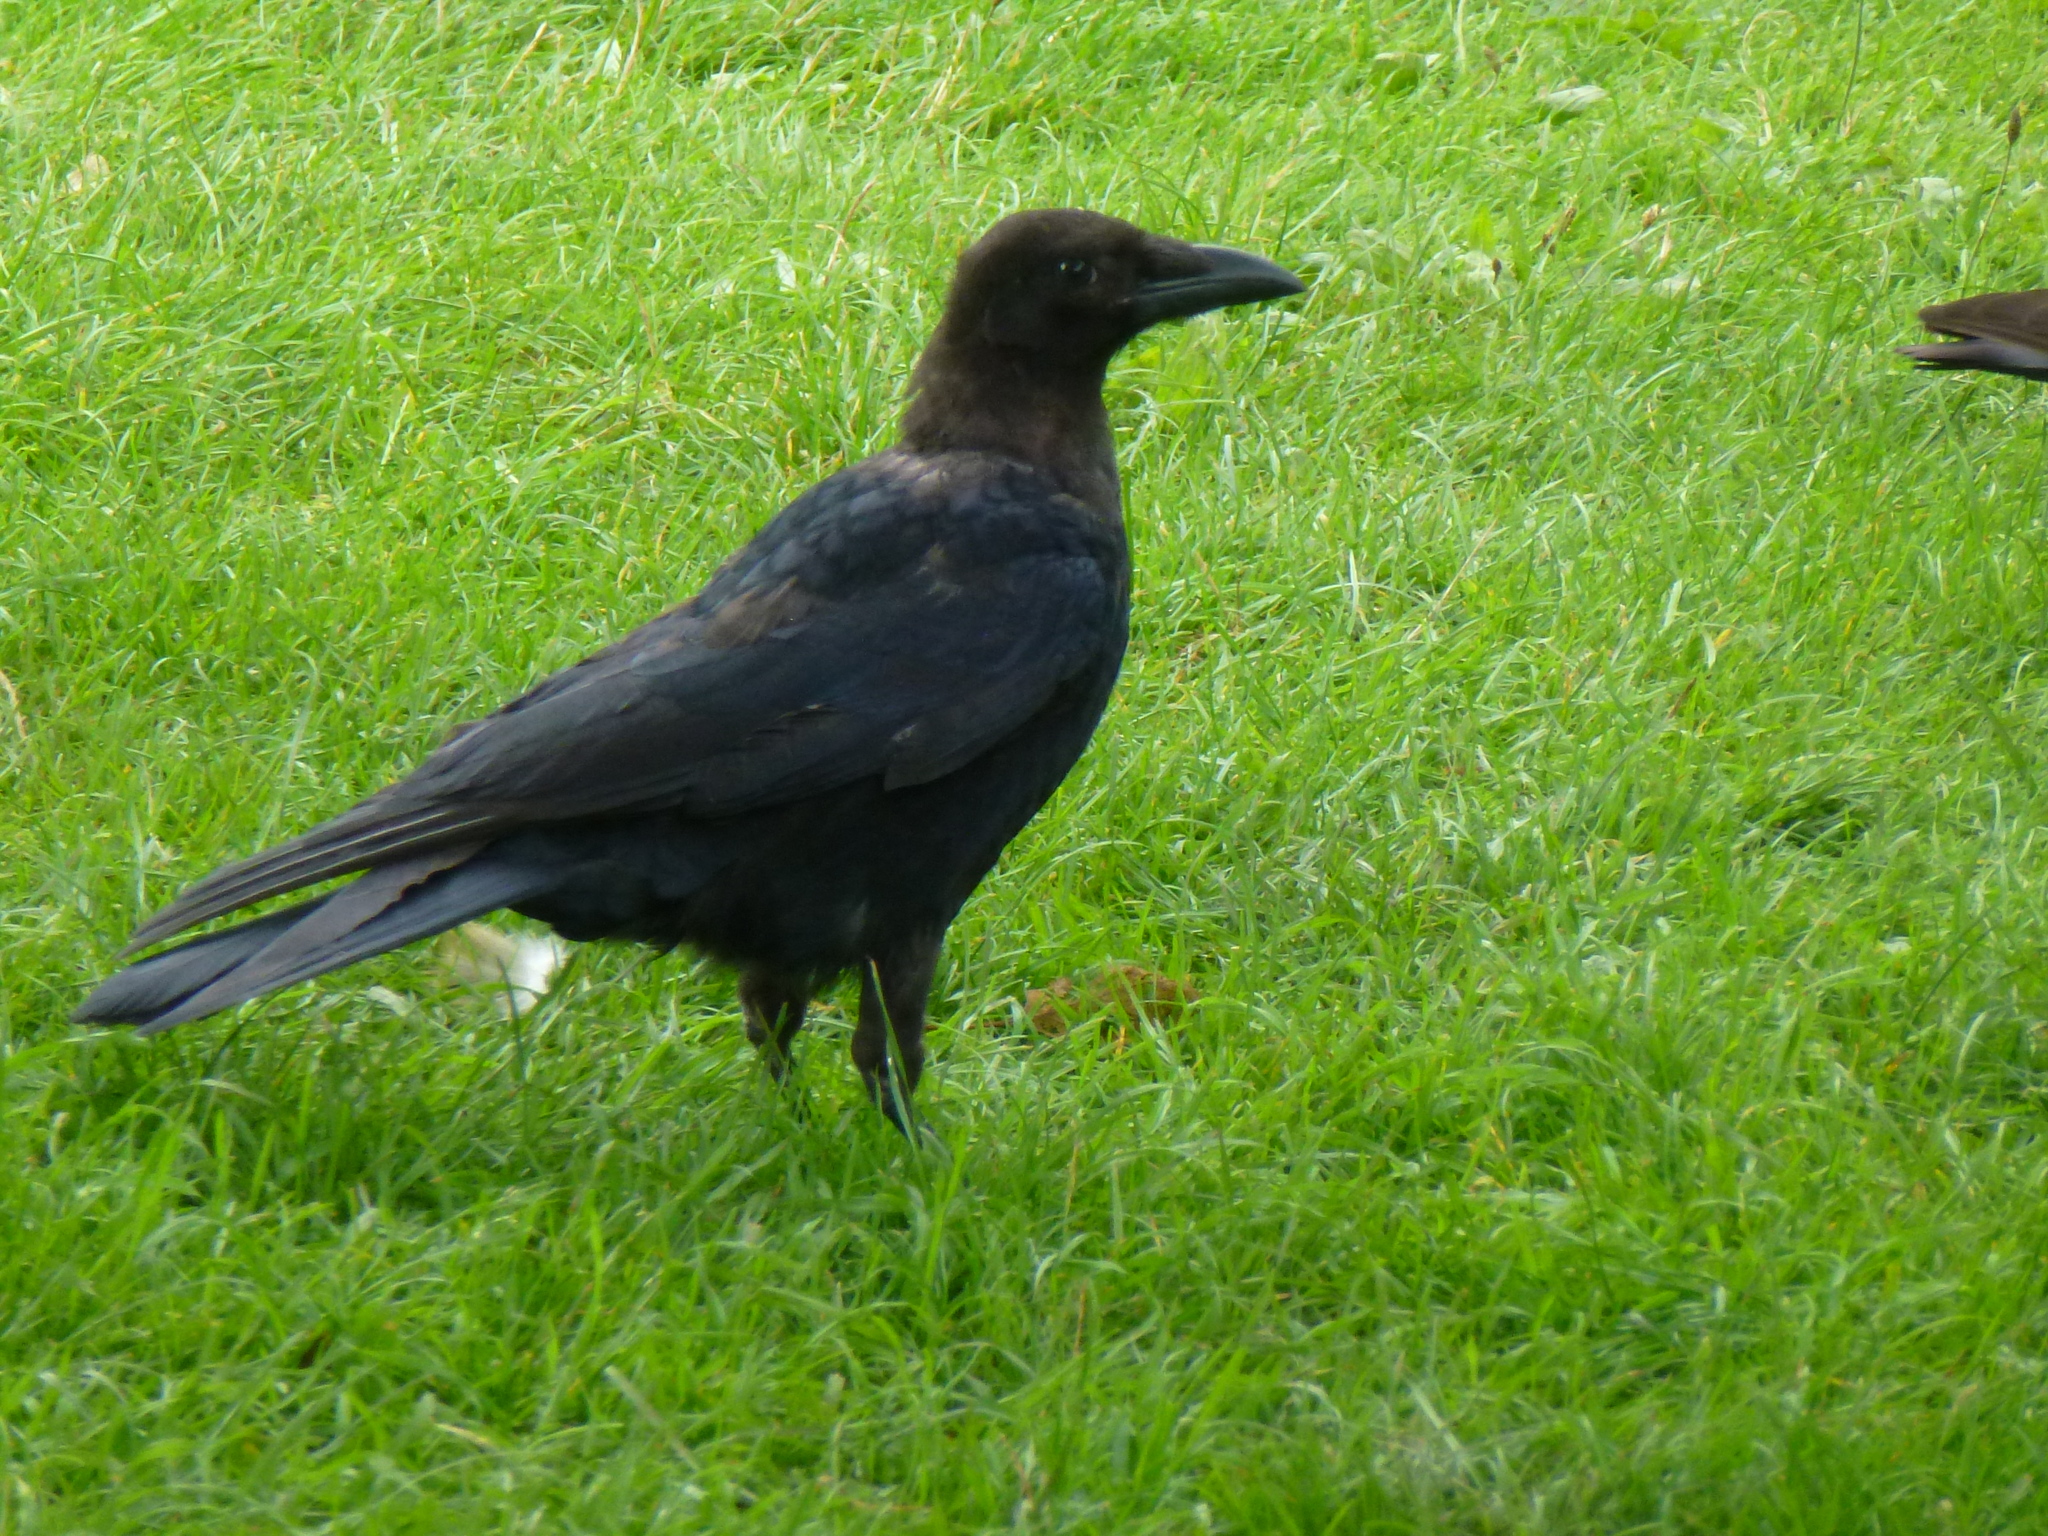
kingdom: Animalia
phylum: Chordata
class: Aves
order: Passeriformes
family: Corvidae
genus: Corvus
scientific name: Corvus corone
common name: Carrion crow
